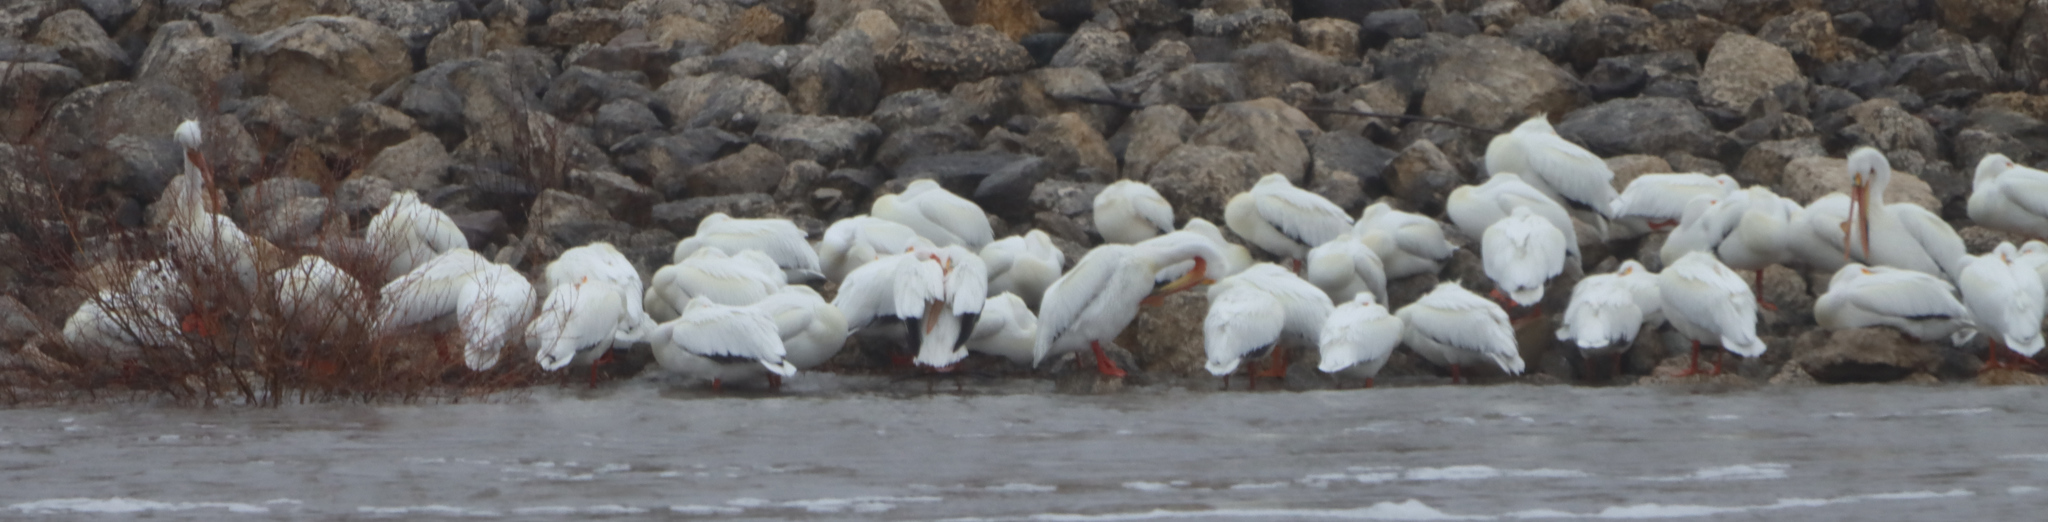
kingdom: Animalia
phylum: Chordata
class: Aves
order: Pelecaniformes
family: Pelecanidae
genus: Pelecanus
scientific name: Pelecanus erythrorhynchos
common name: American white pelican
